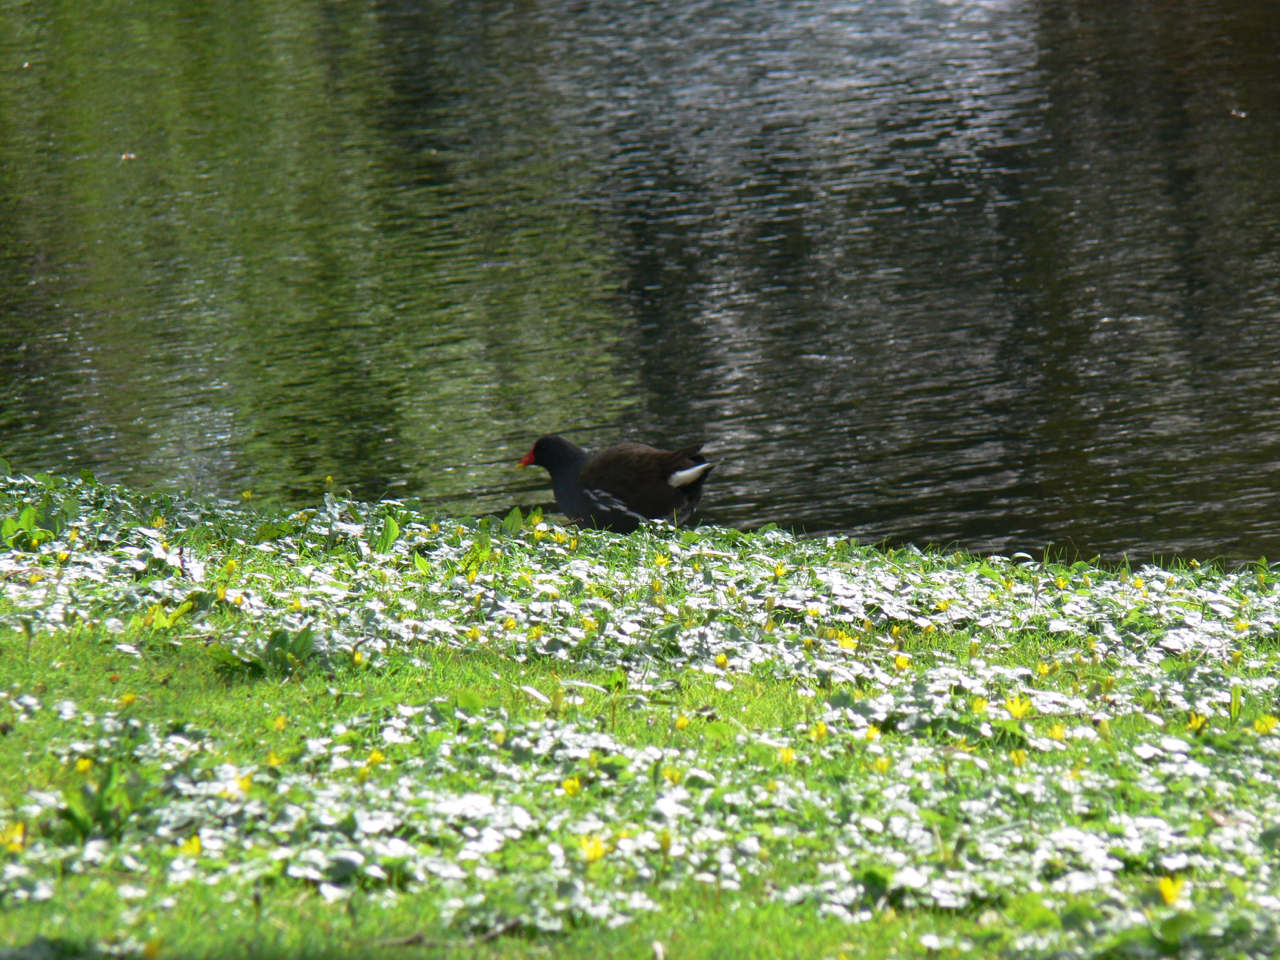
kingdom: Animalia
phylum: Chordata
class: Aves
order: Gruiformes
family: Rallidae
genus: Gallinula
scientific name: Gallinula chloropus
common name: Common moorhen
